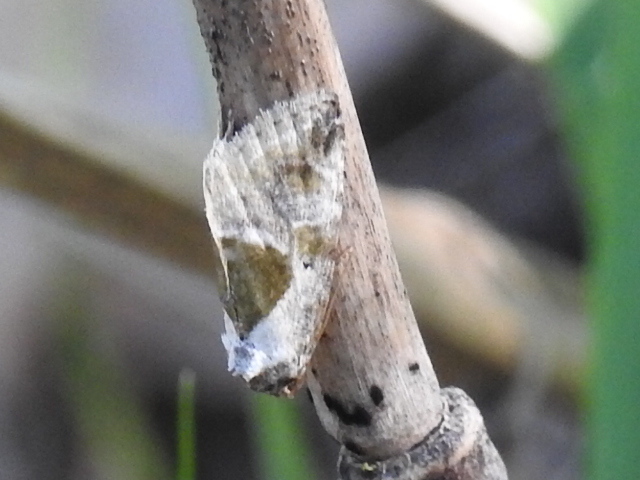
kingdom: Animalia
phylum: Arthropoda
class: Insecta
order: Lepidoptera
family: Noctuidae
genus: Maliattha
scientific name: Maliattha synochitis
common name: Black-dotted glyph
